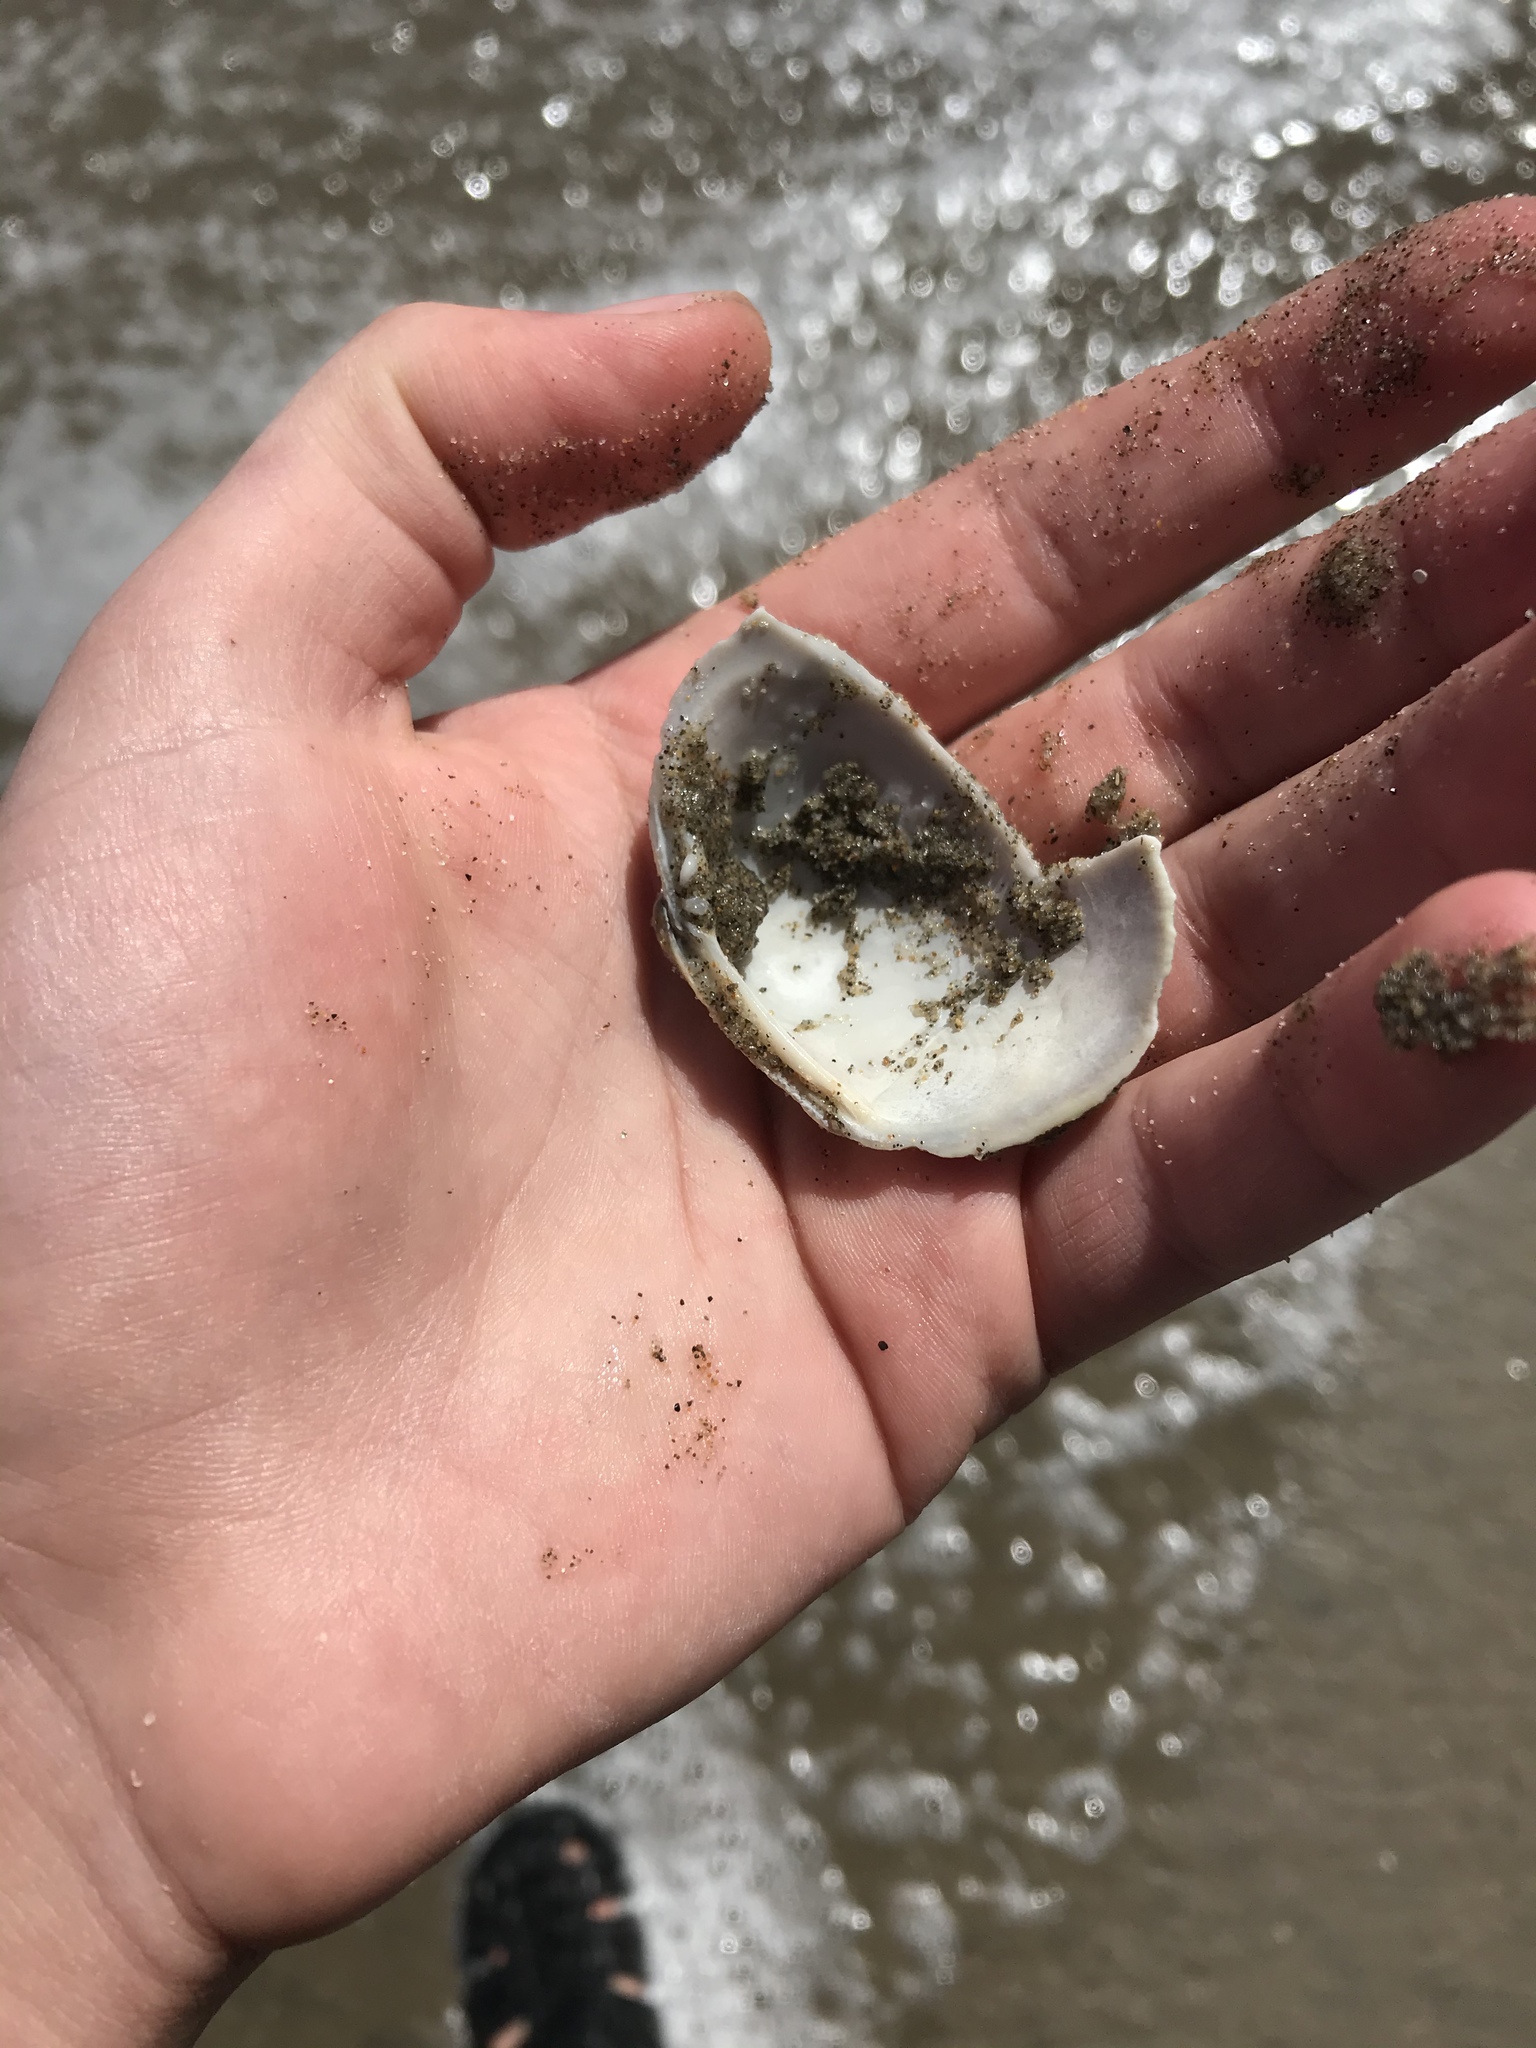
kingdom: Animalia
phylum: Mollusca
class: Bivalvia
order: Venerida
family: Veneridae
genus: Leukoma
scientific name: Leukoma staminea
